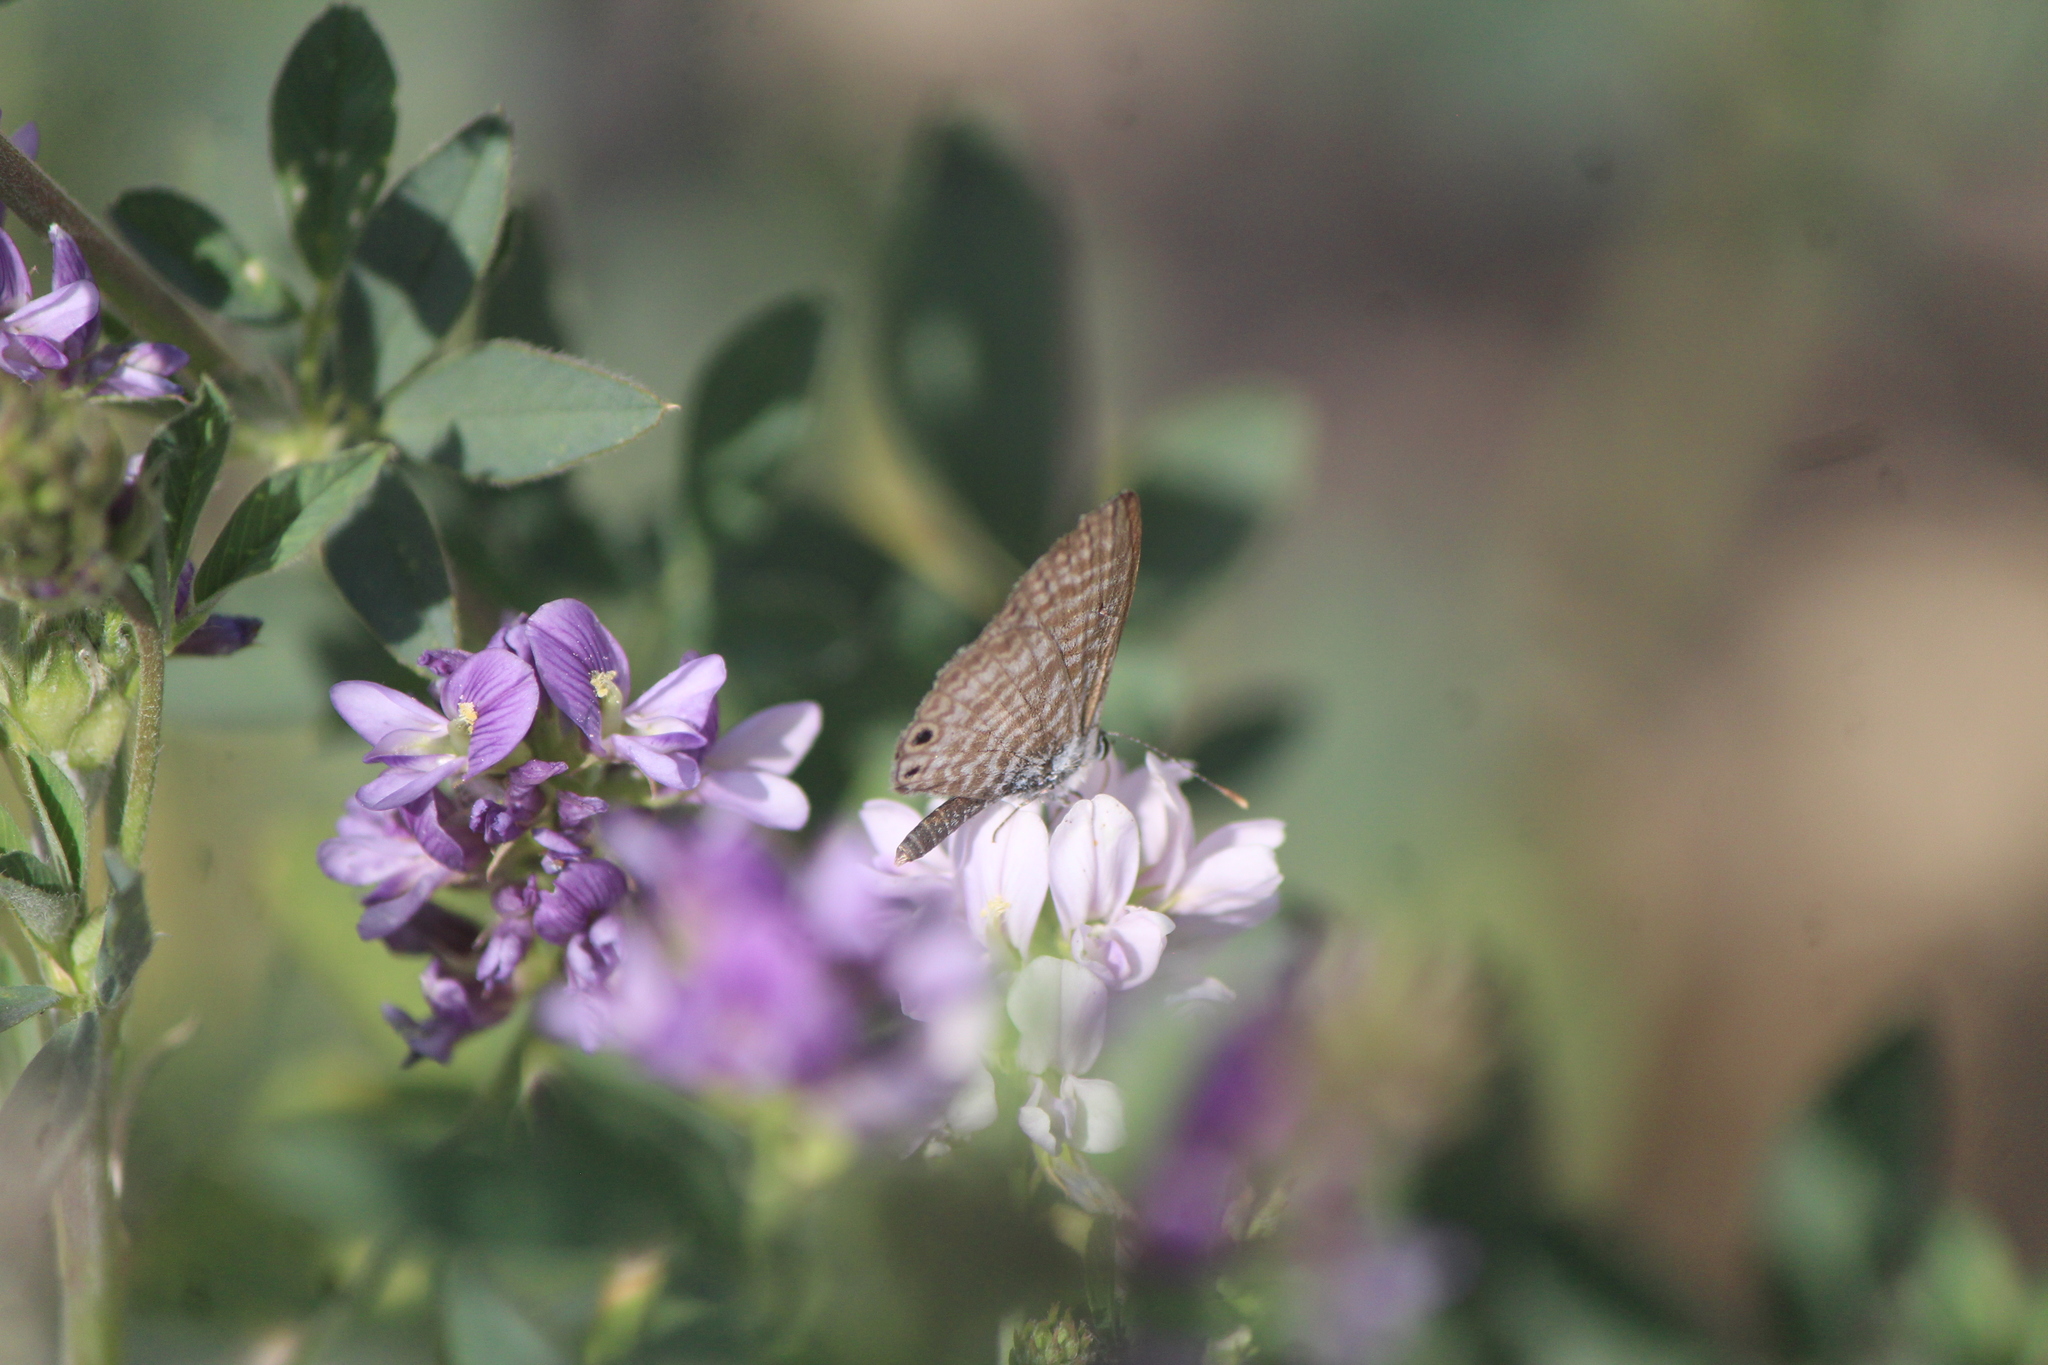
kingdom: Animalia
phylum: Arthropoda
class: Insecta
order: Lepidoptera
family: Lycaenidae
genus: Leptotes
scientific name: Leptotes marina
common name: Marine blue
